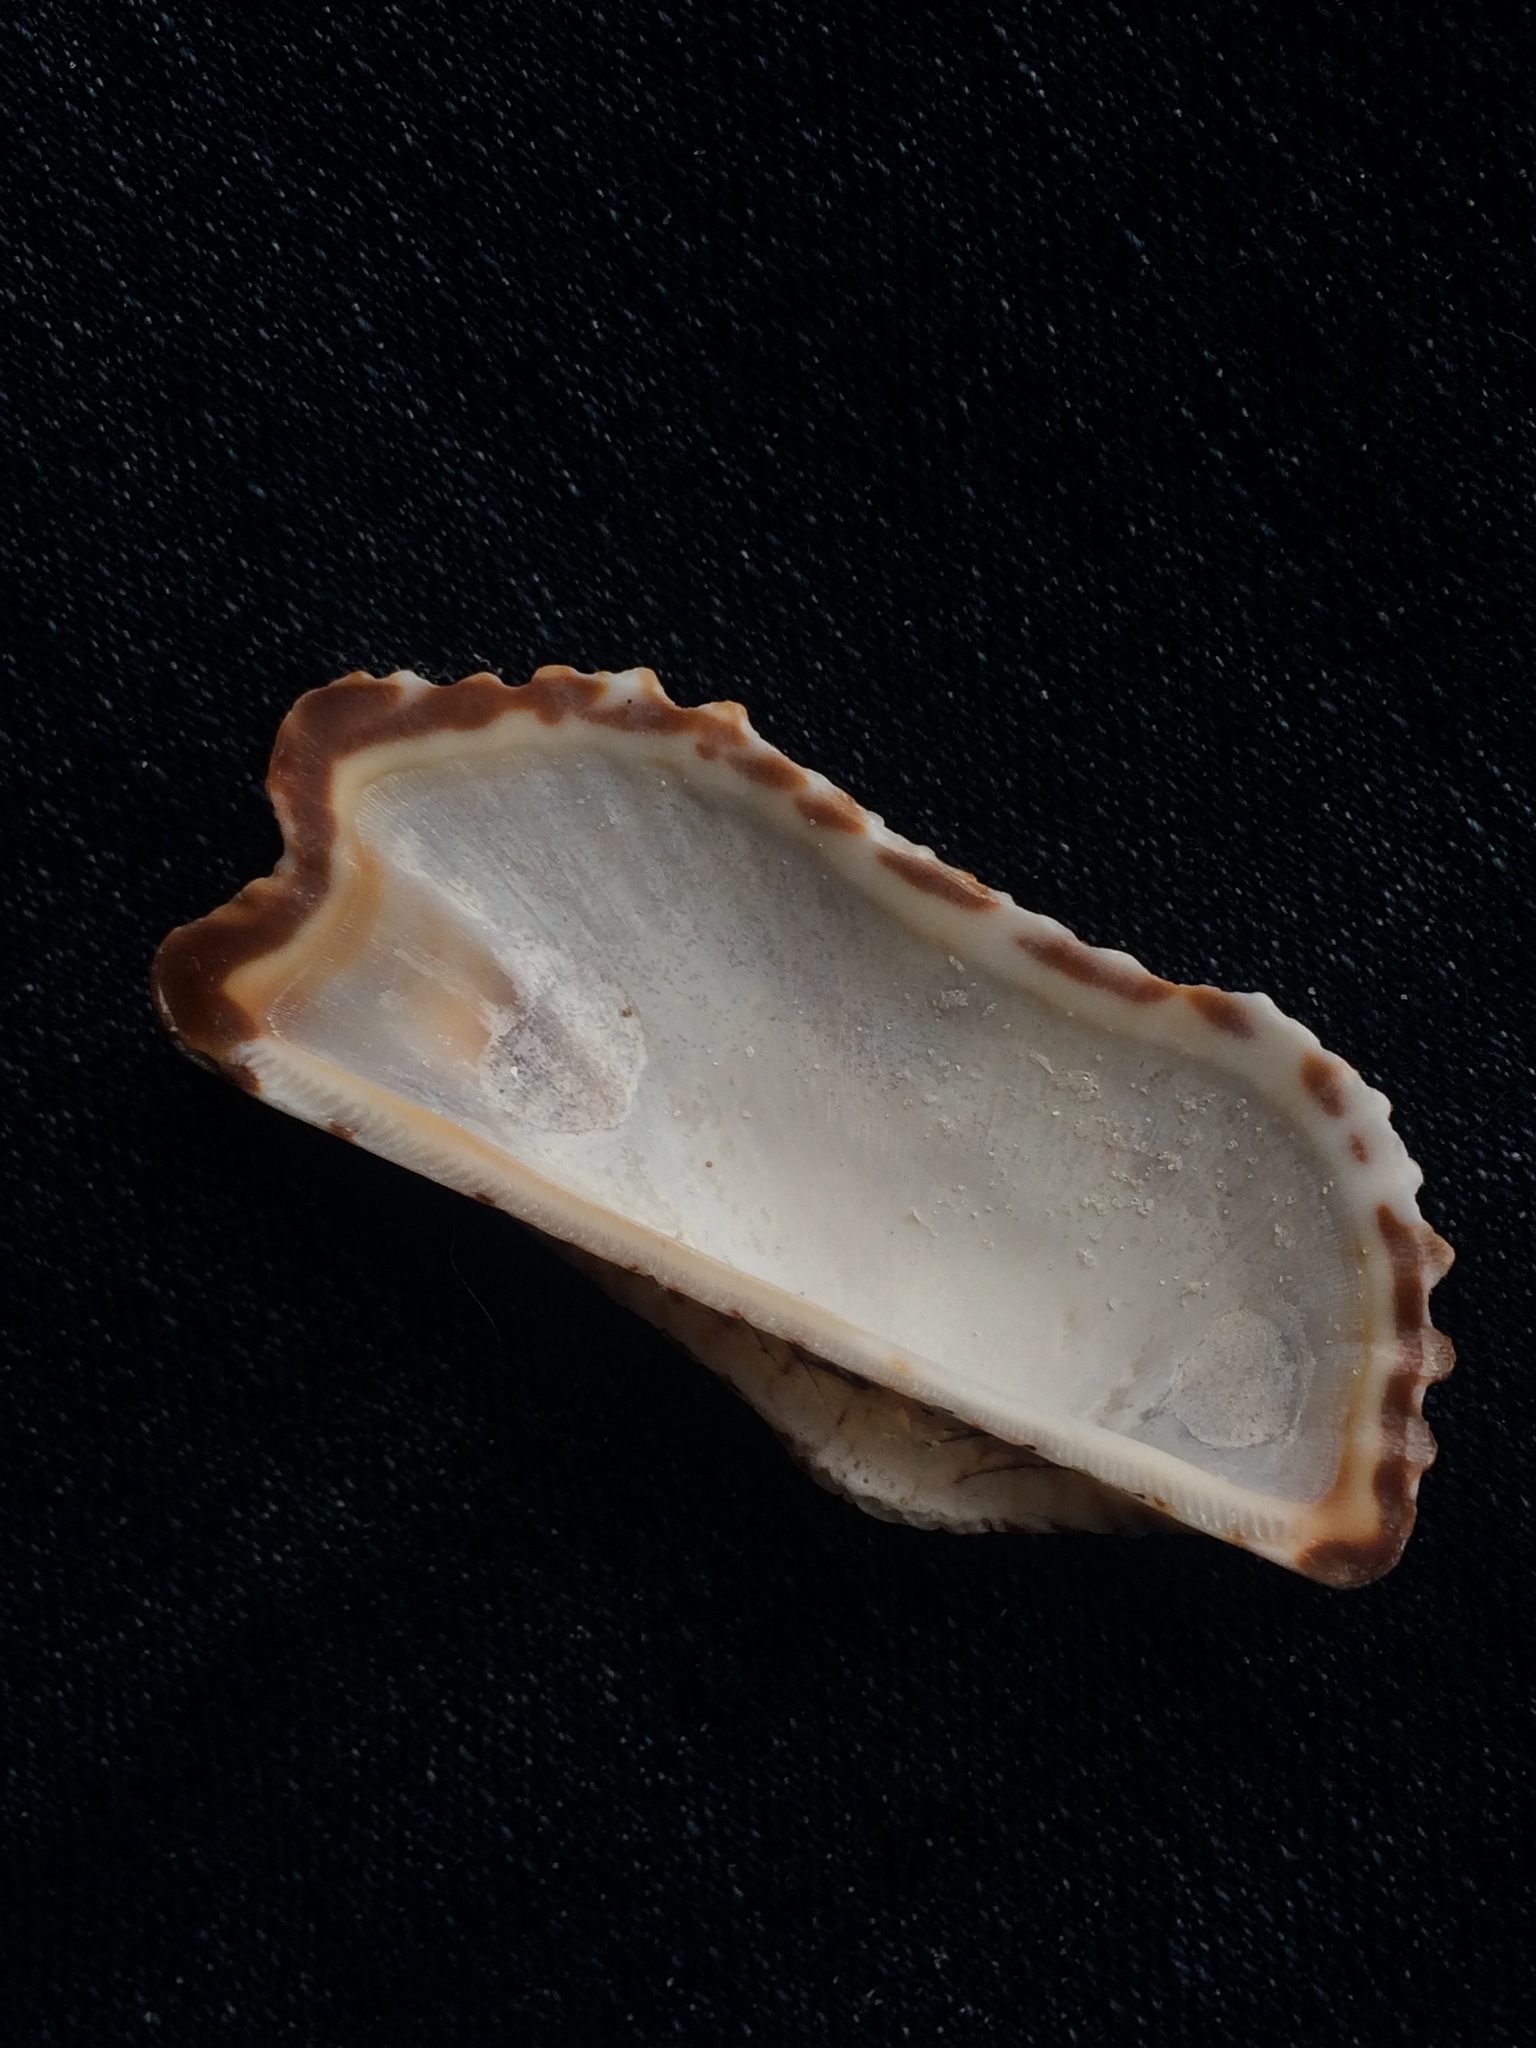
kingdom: Animalia
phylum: Mollusca
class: Bivalvia
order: Arcida
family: Arcidae
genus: Arca
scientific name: Arca zebra
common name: Atlantic turkey wing
